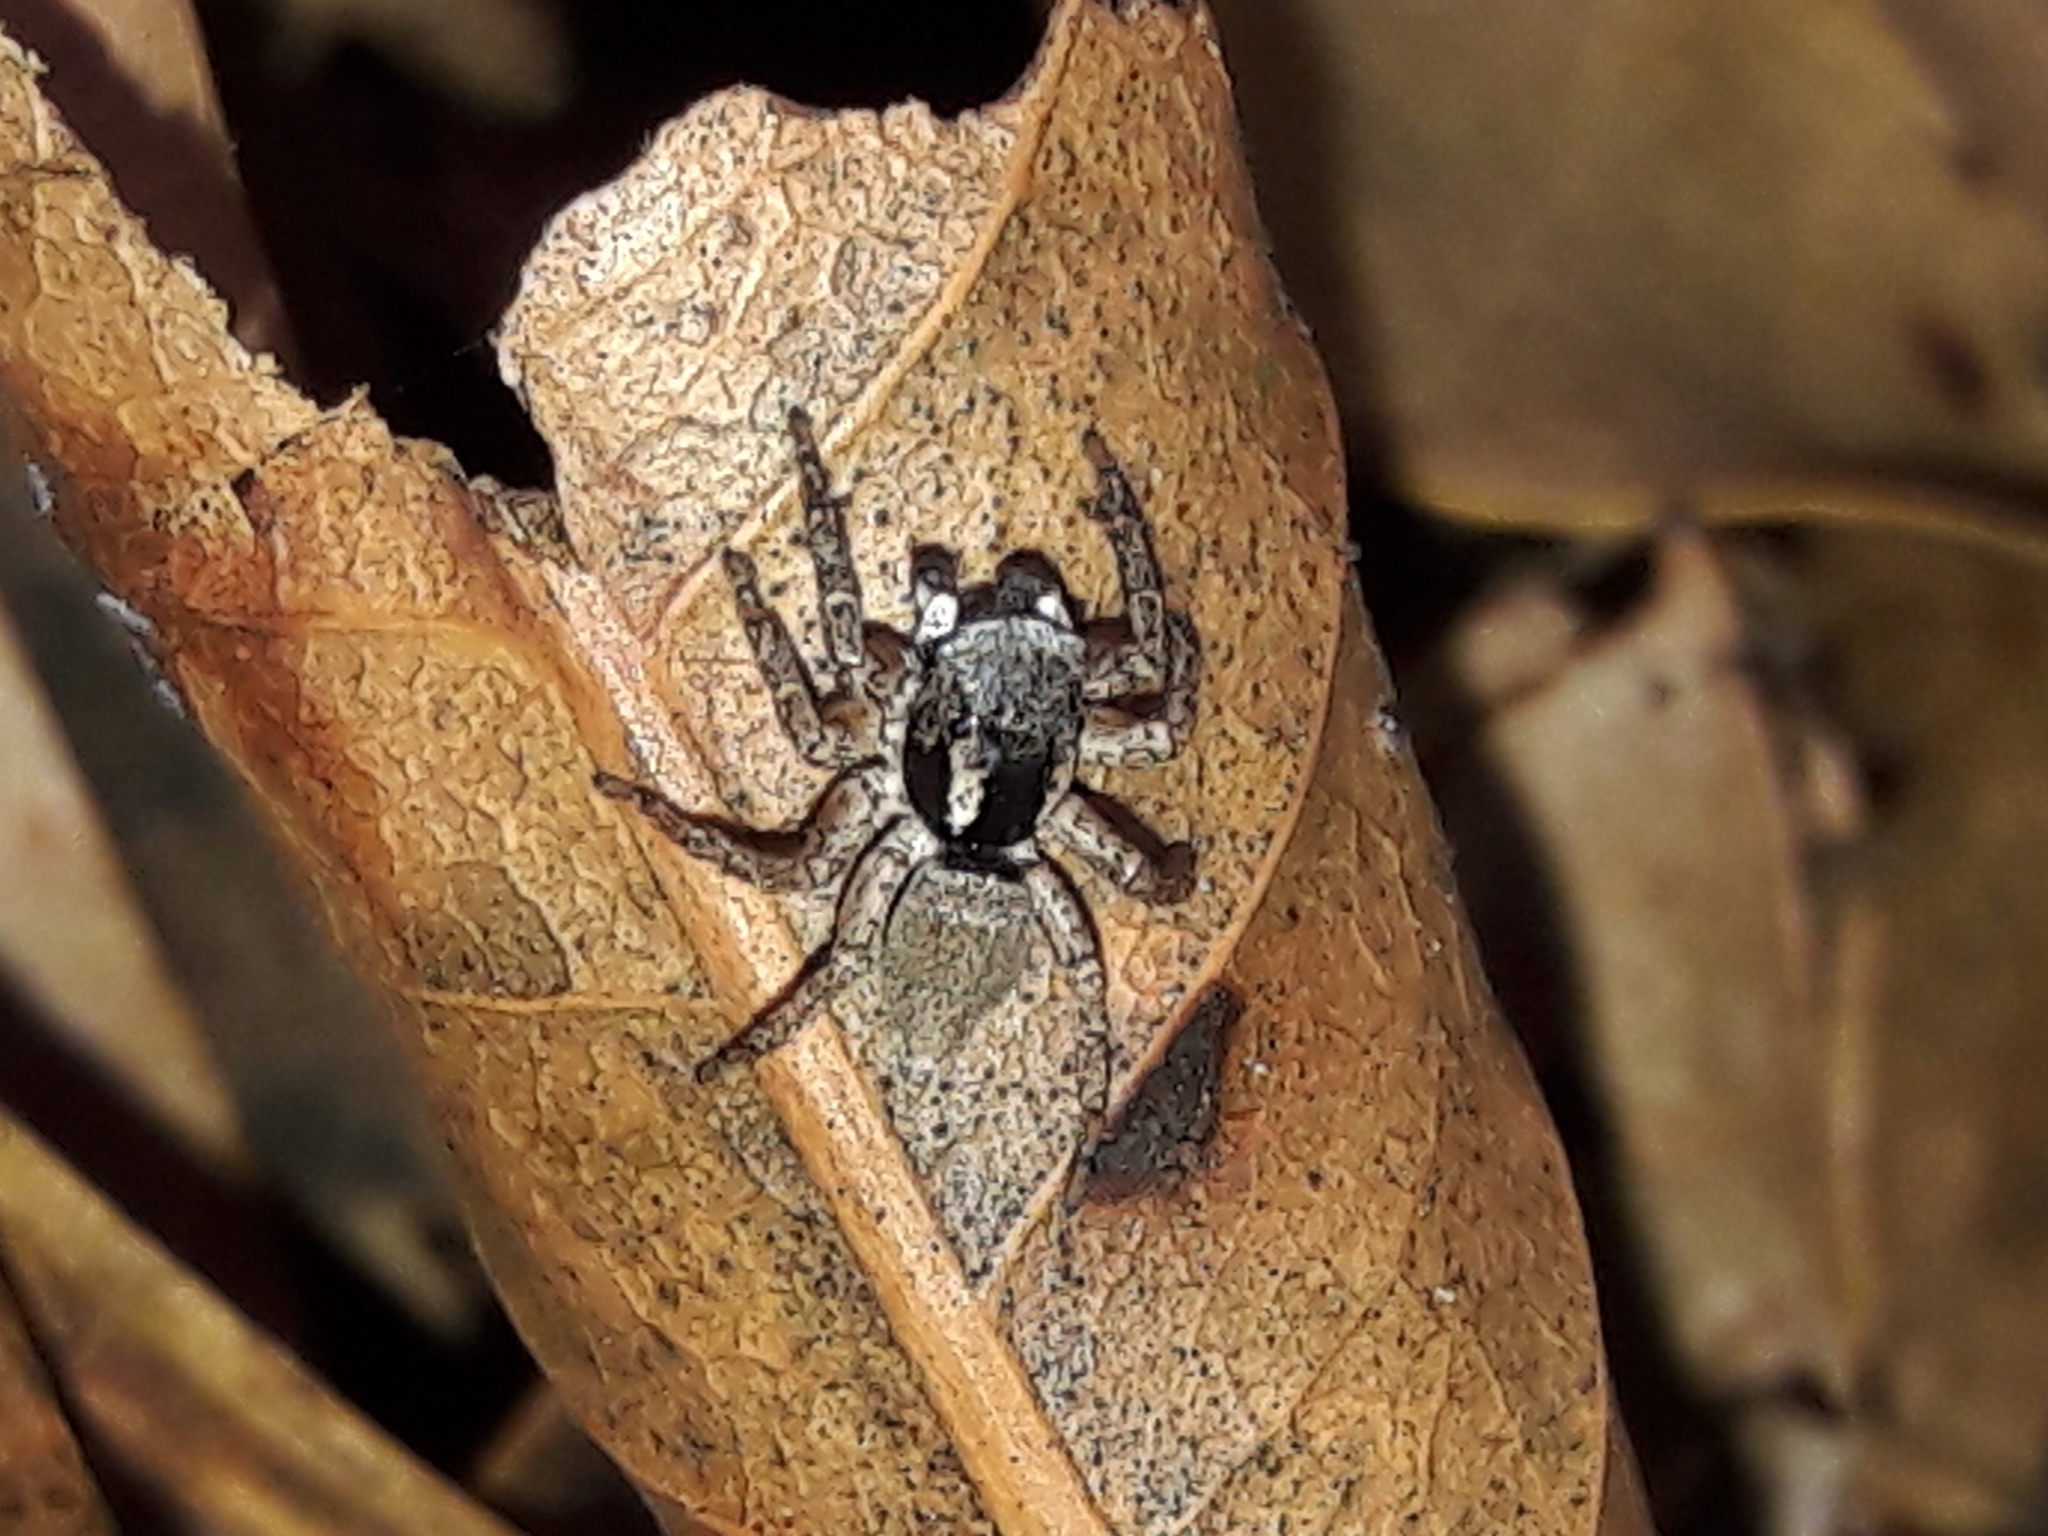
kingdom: Animalia
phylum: Arthropoda
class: Arachnida
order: Araneae
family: Salticidae
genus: Sumampattus
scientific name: Sumampattus quinqueradiatus
